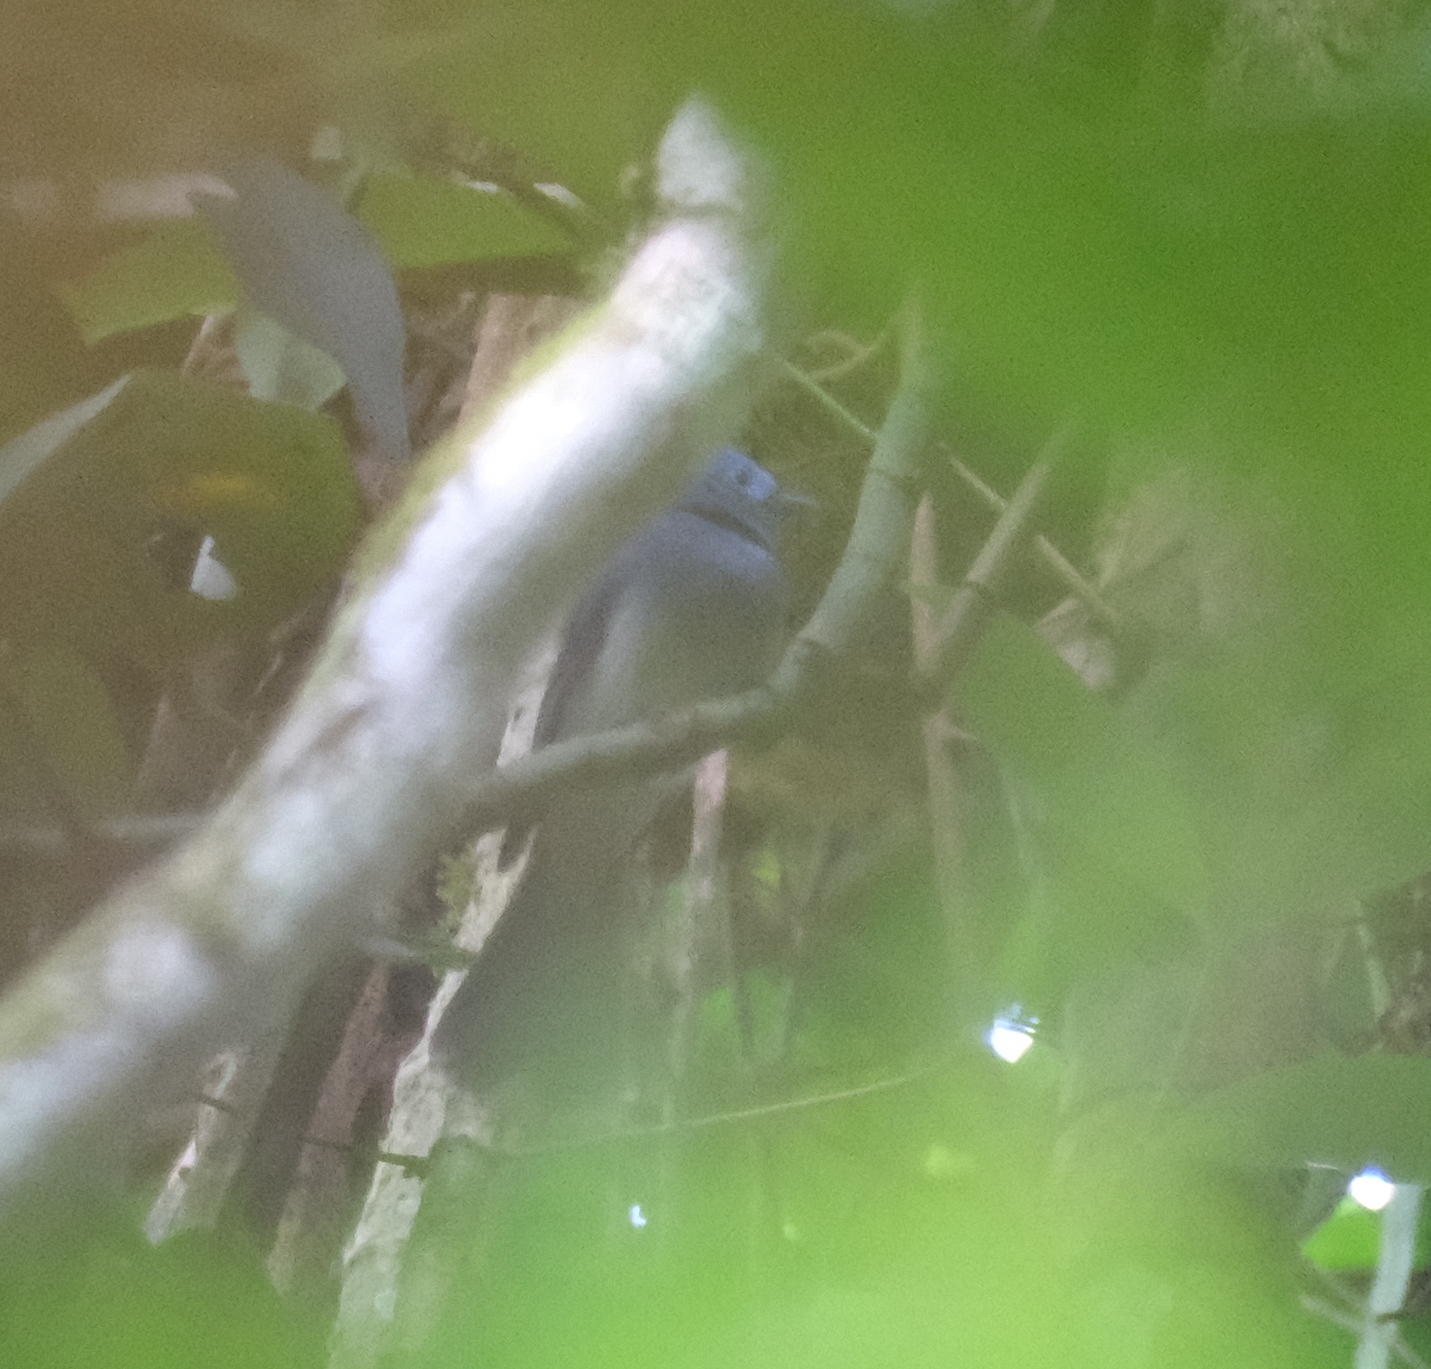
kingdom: Animalia
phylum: Chordata
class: Aves
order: Passeriformes
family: Monarchidae
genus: Hypothymis
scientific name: Hypothymis azurea
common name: Black-naped monarch
